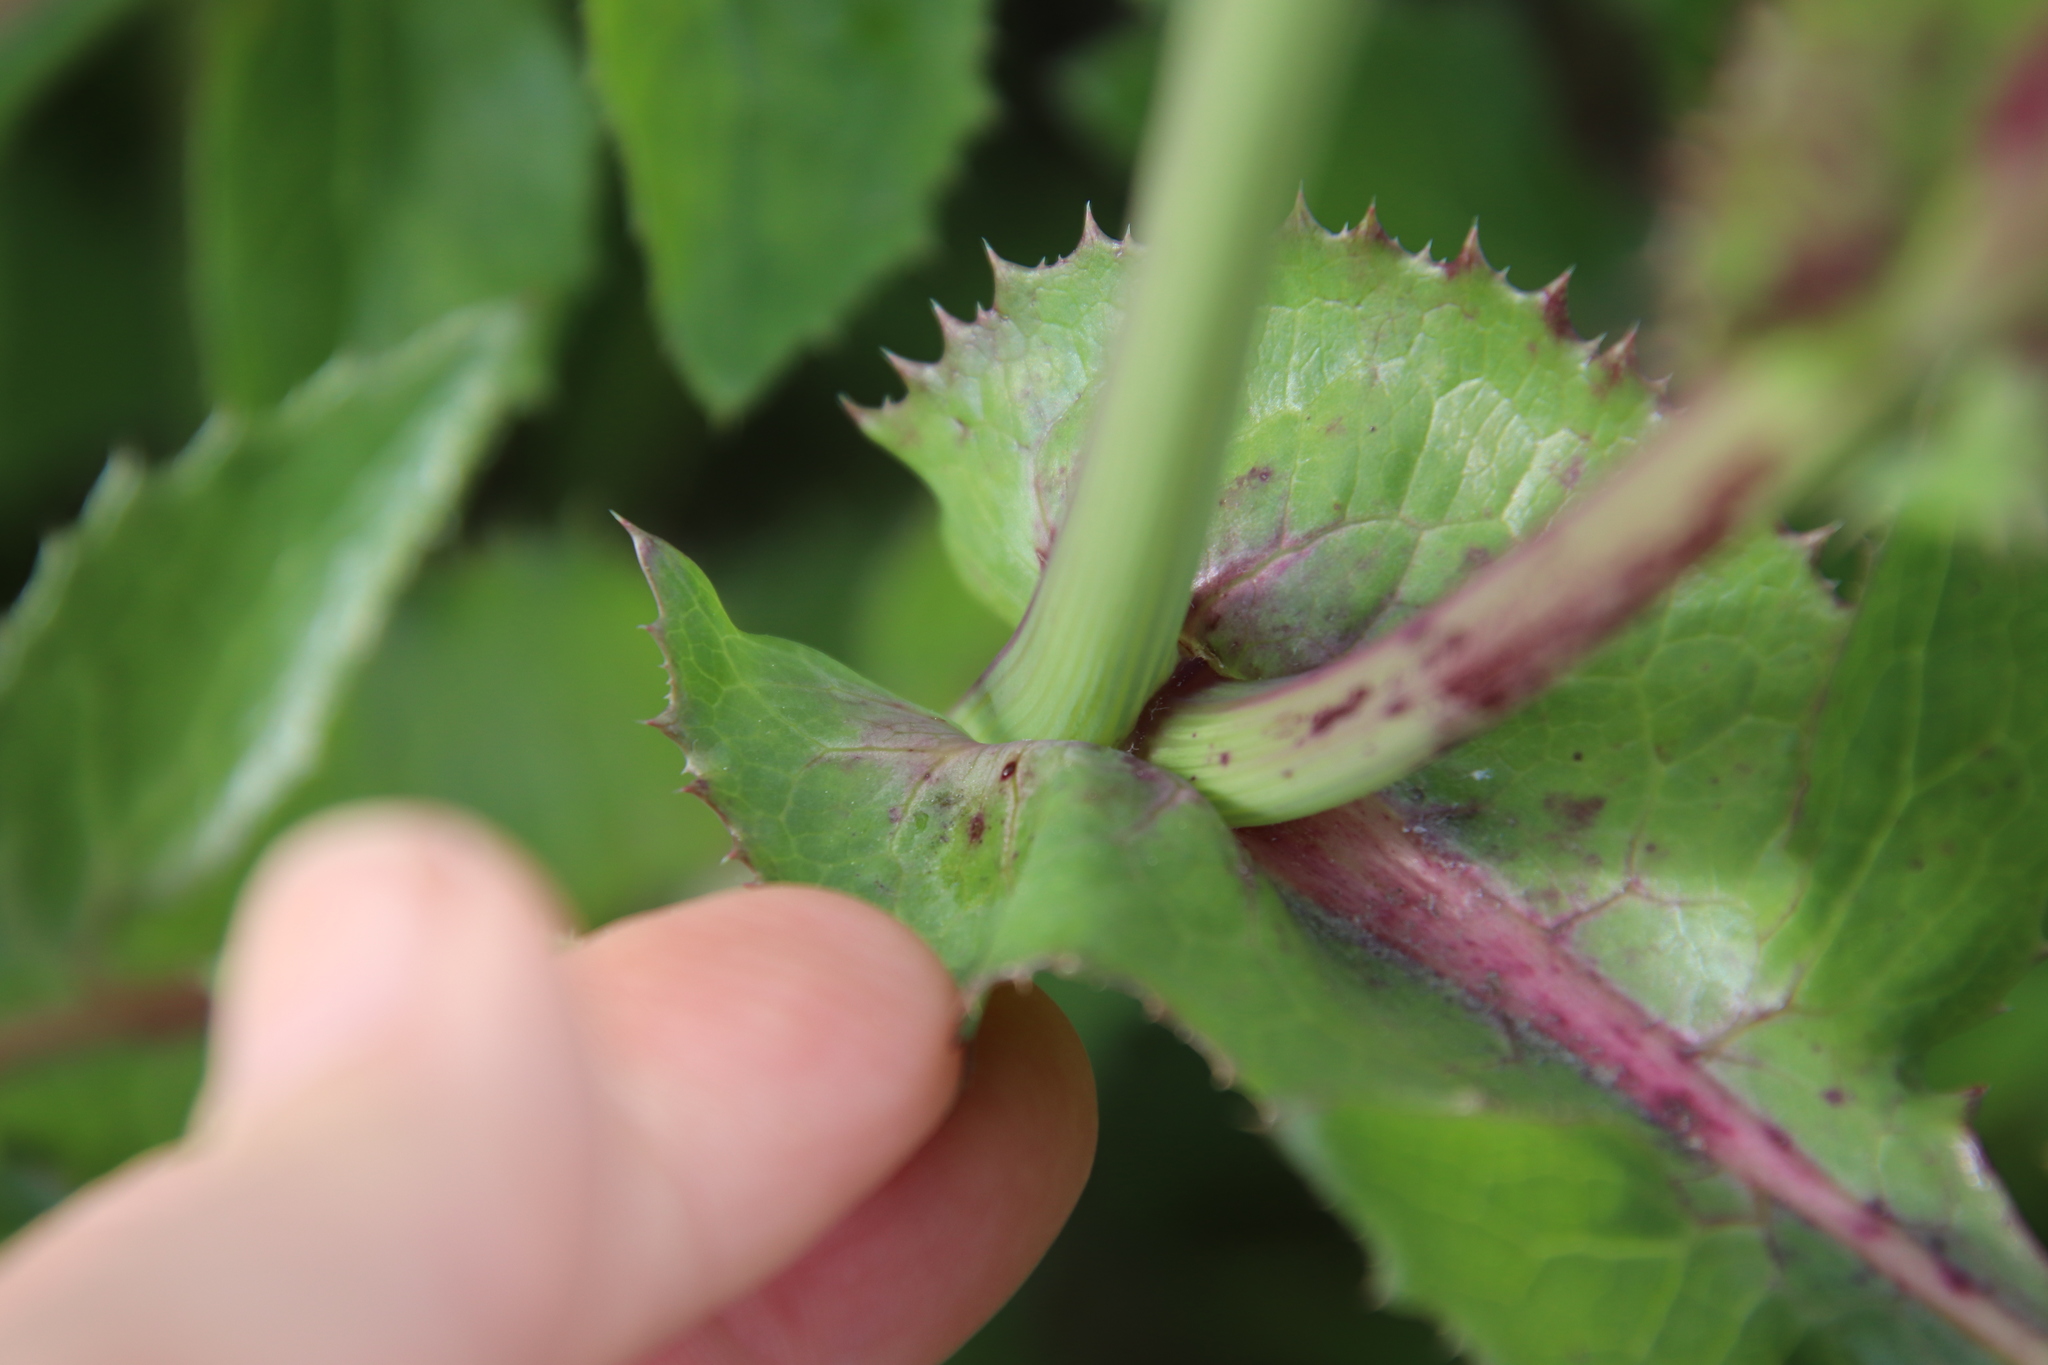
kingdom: Plantae
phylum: Tracheophyta
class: Magnoliopsida
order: Asterales
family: Asteraceae
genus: Sonchus
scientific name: Sonchus oleraceus
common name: Common sowthistle
